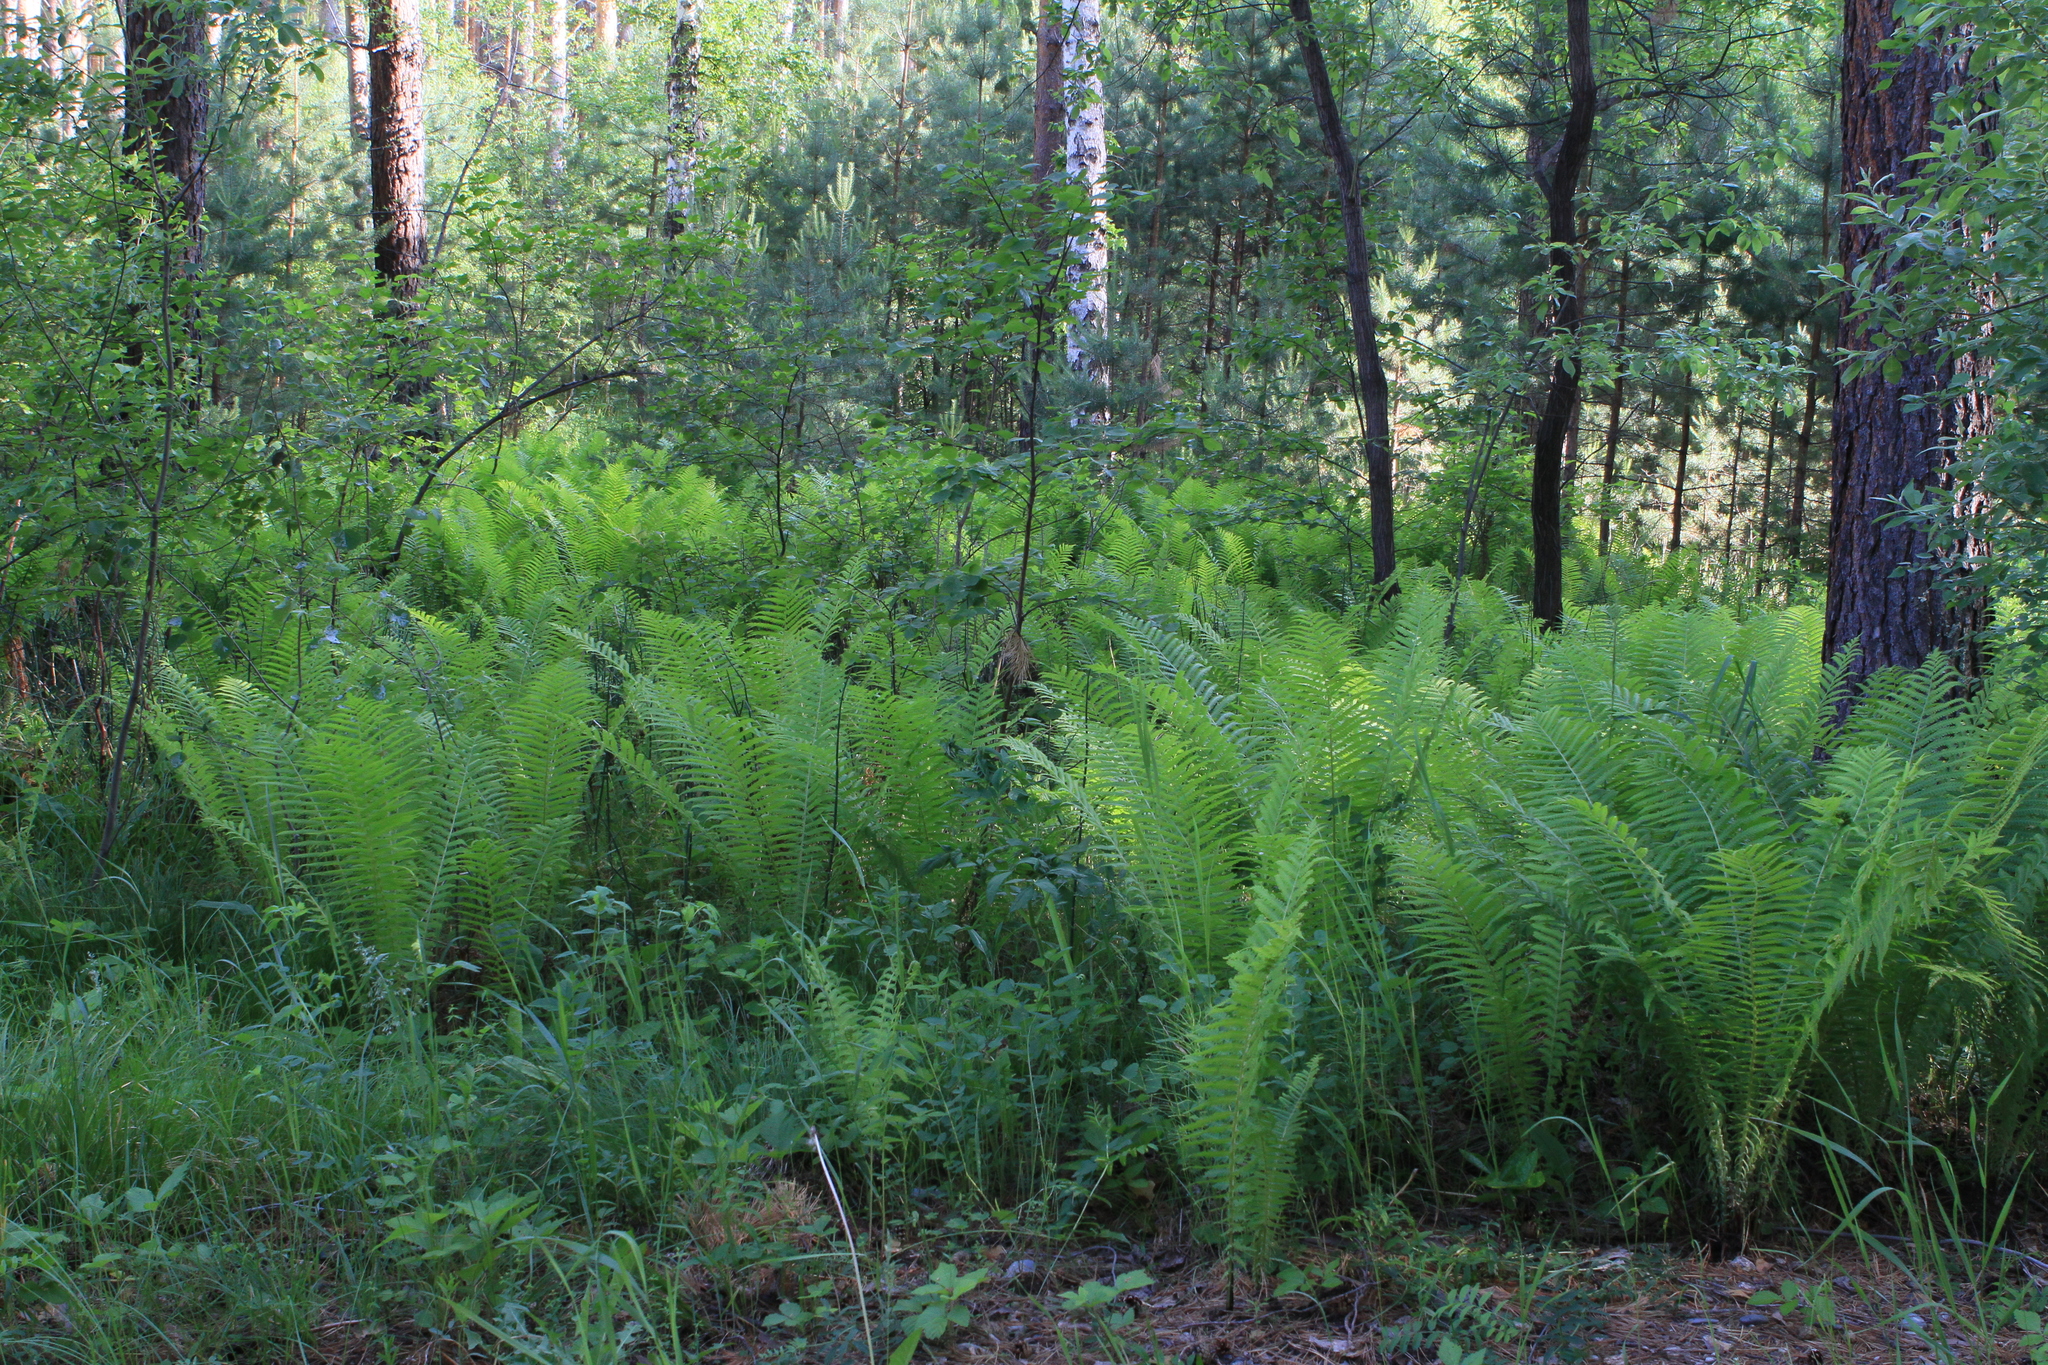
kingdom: Plantae
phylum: Tracheophyta
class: Polypodiopsida
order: Polypodiales
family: Onocleaceae
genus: Matteuccia
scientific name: Matteuccia struthiopteris
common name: Ostrich fern
